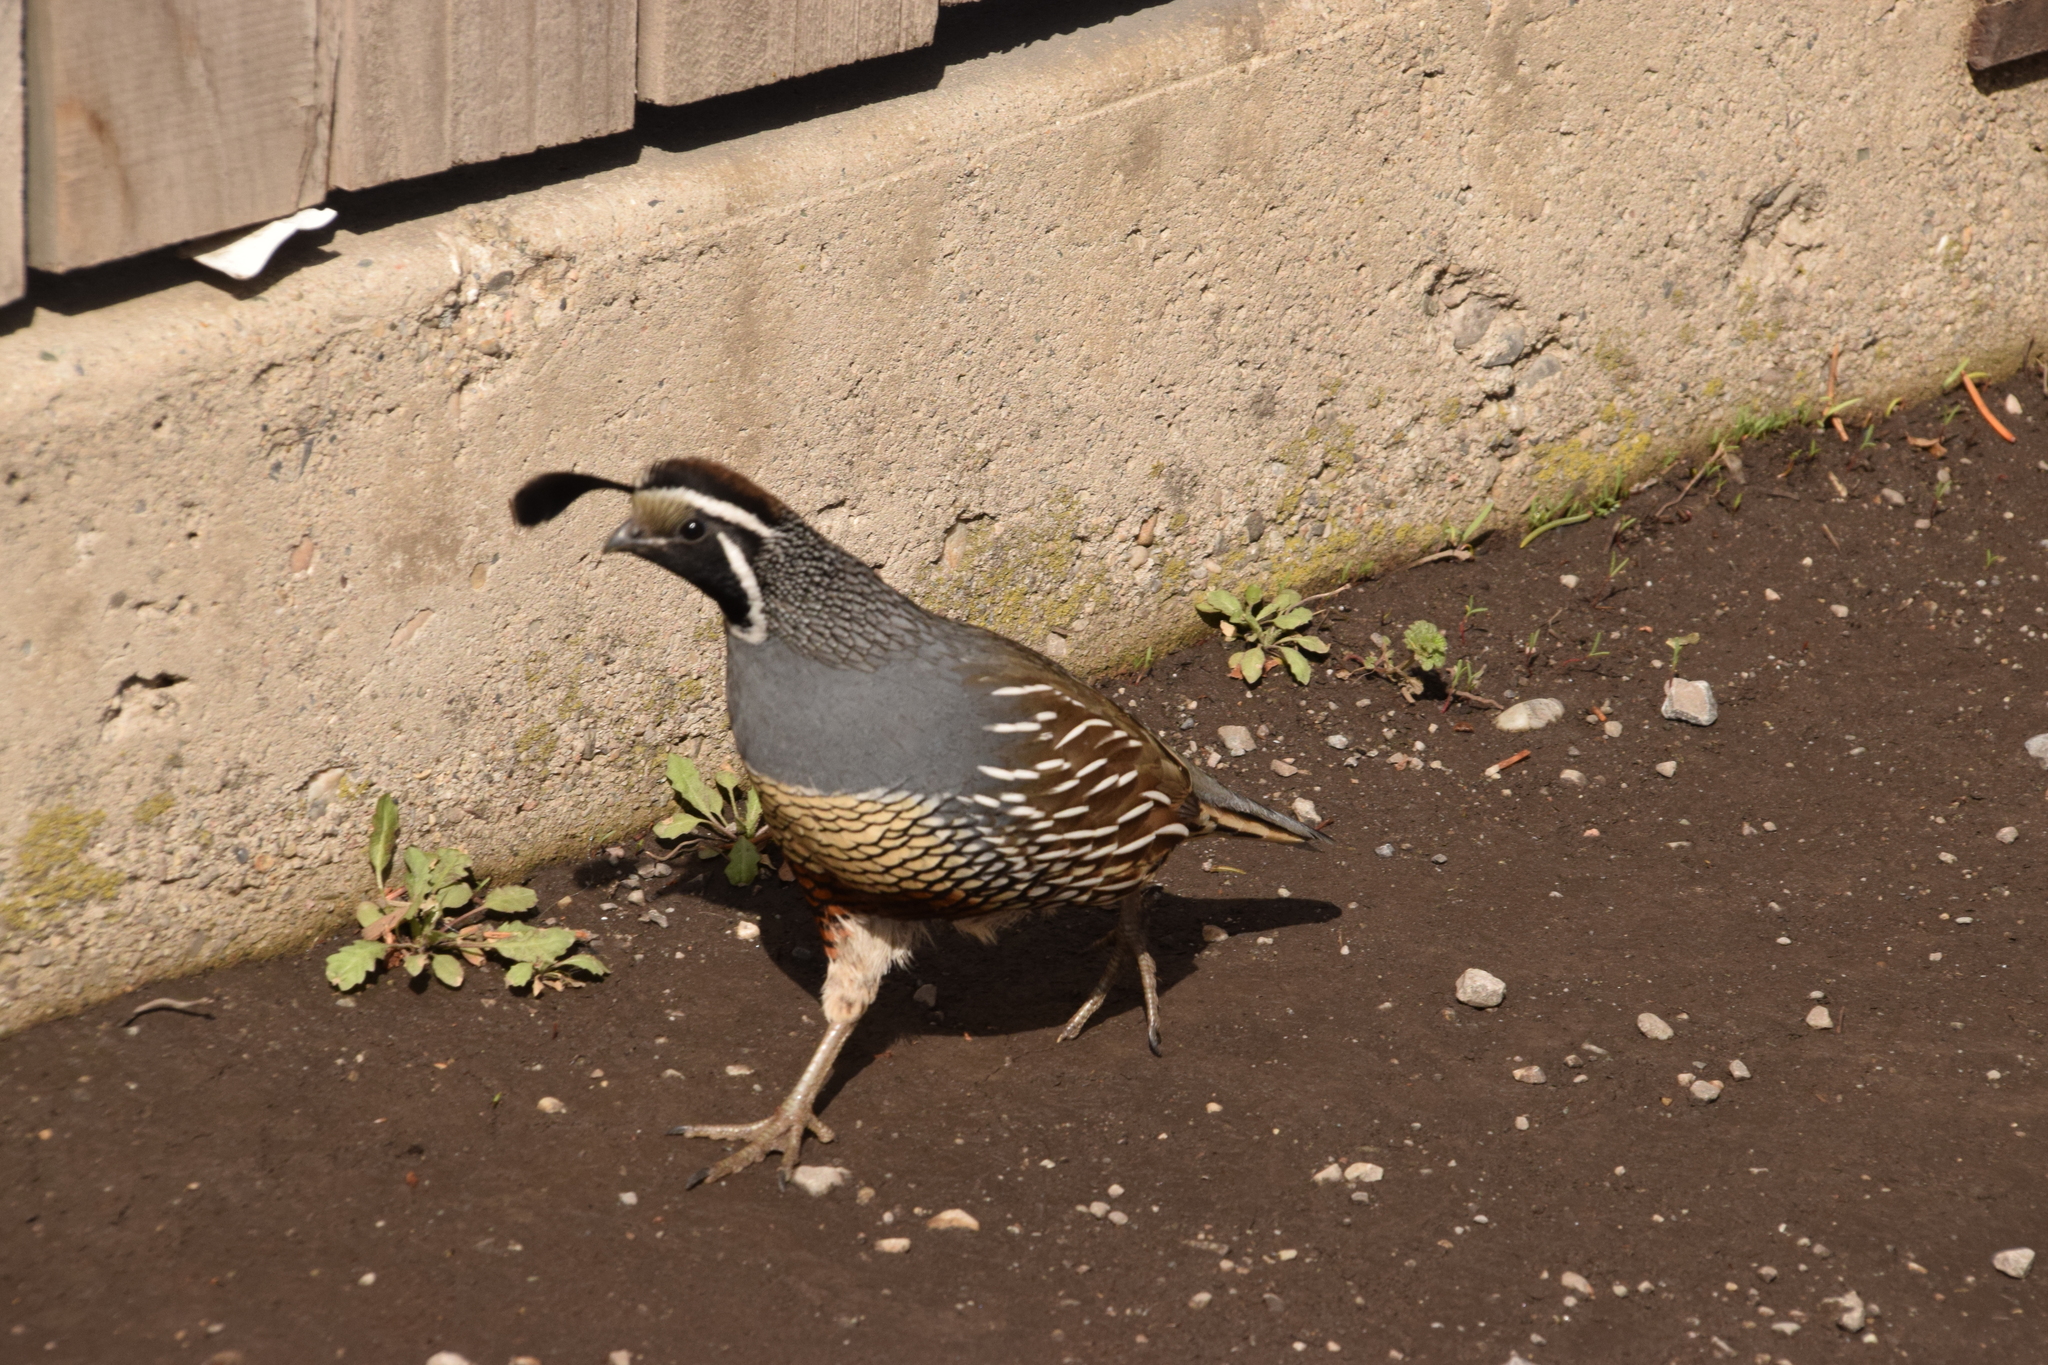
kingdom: Animalia
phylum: Chordata
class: Aves
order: Galliformes
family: Odontophoridae
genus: Callipepla
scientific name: Callipepla californica
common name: California quail
